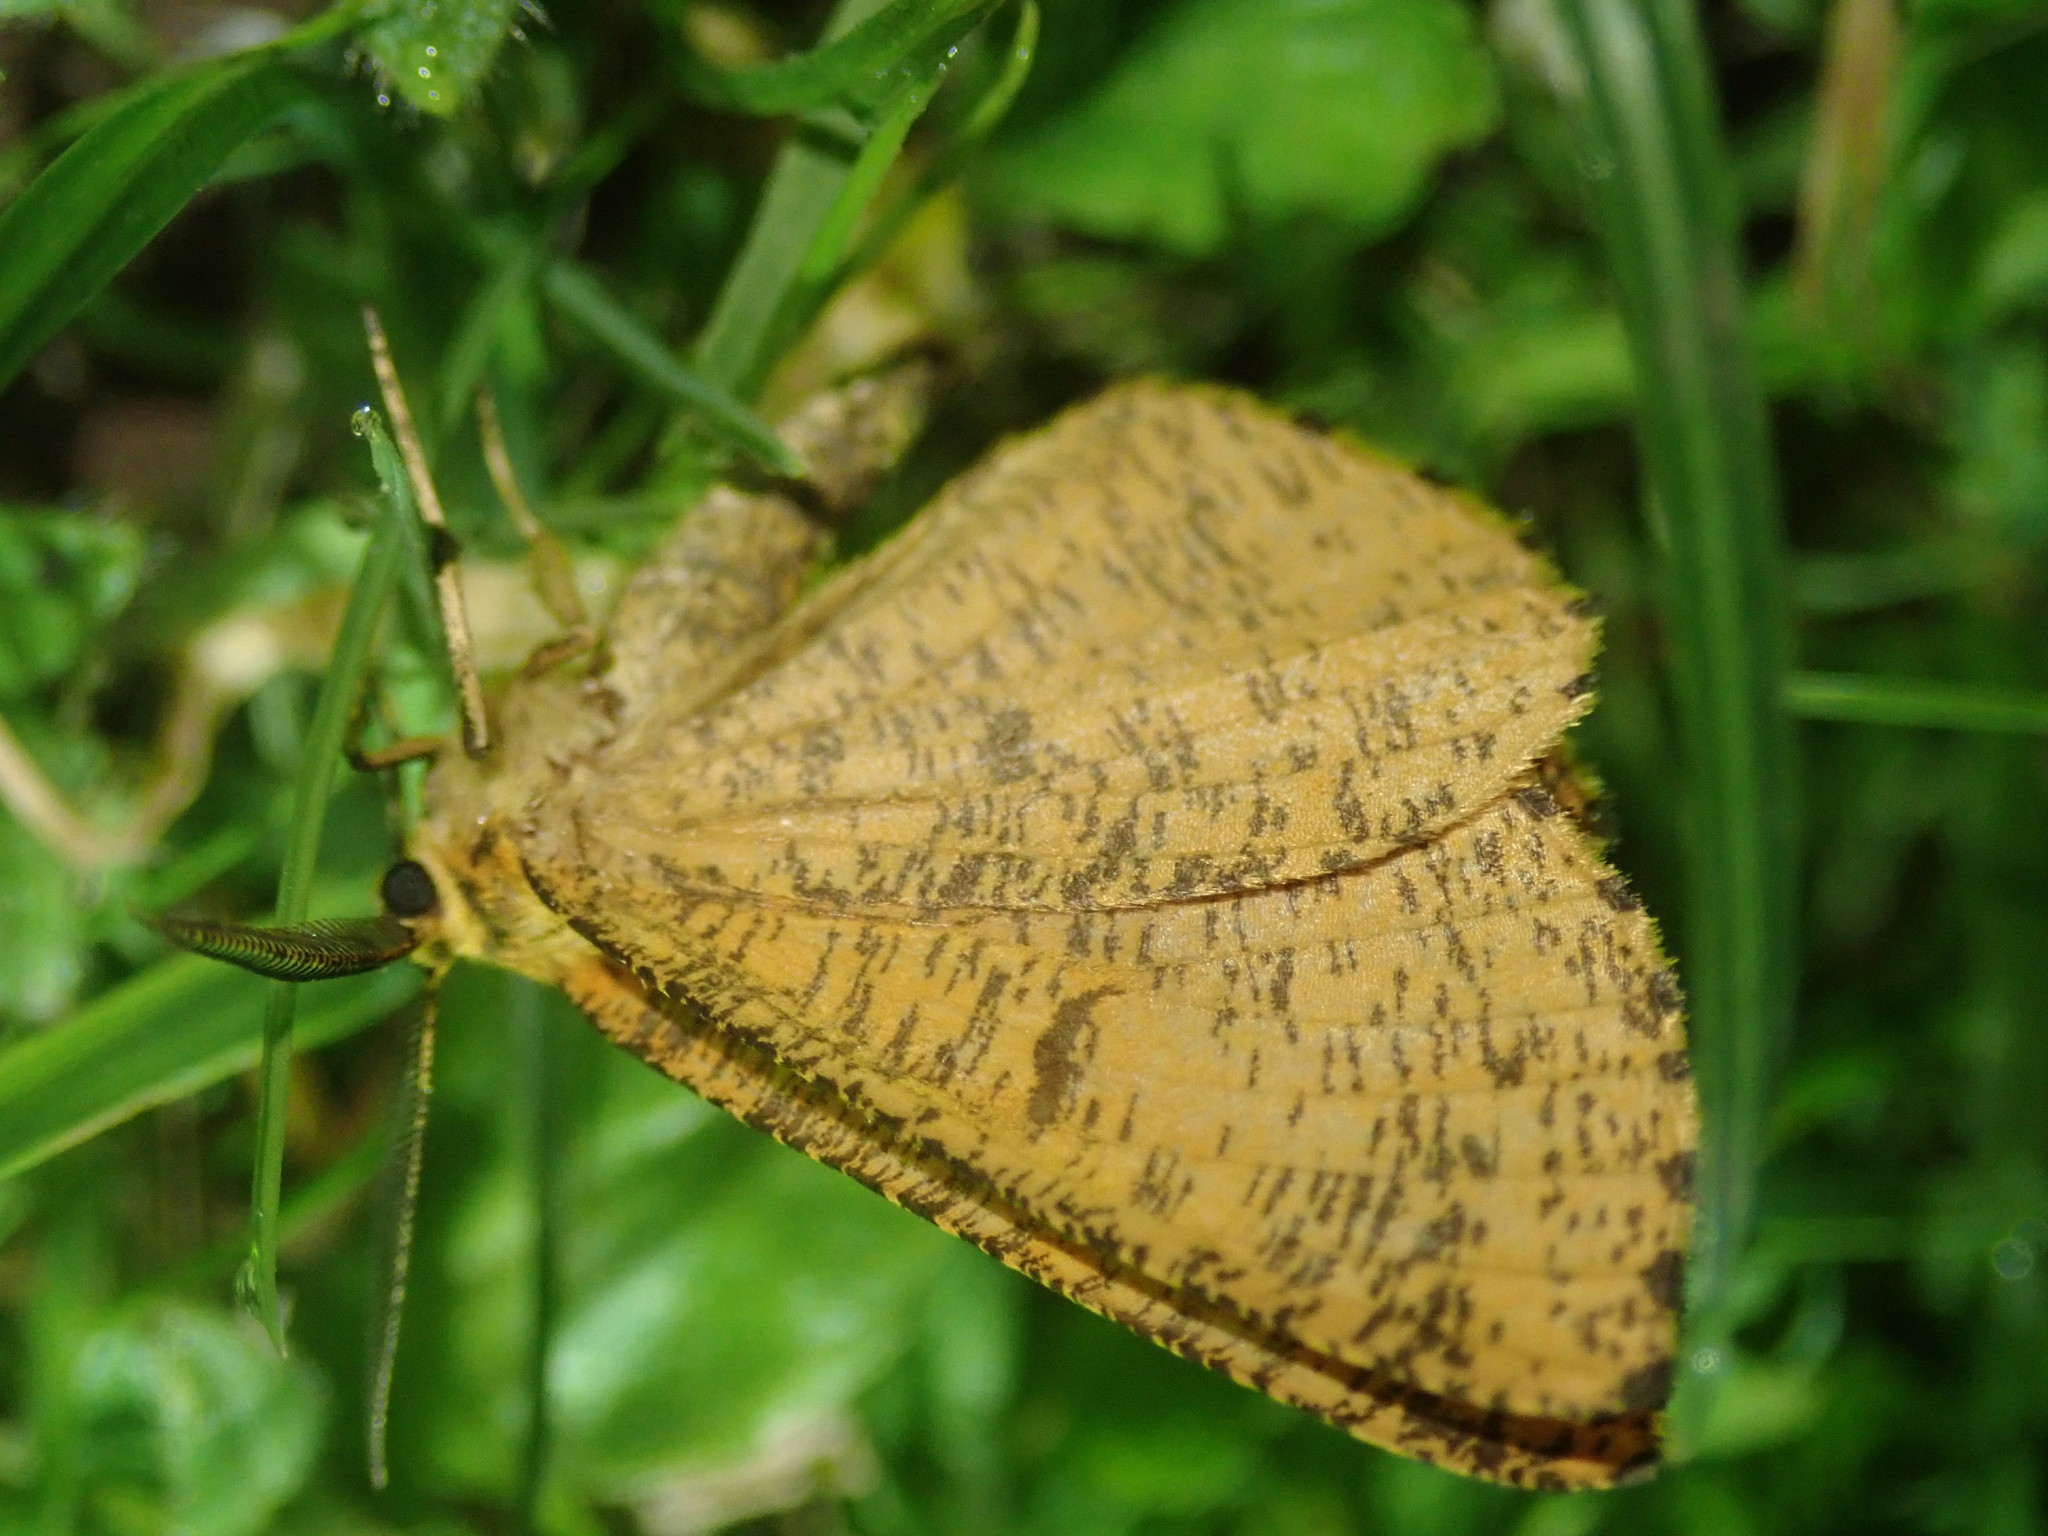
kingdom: Animalia
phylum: Arthropoda
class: Insecta
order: Lepidoptera
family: Geometridae
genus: Angerona
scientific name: Angerona prunaria
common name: Orange moth
